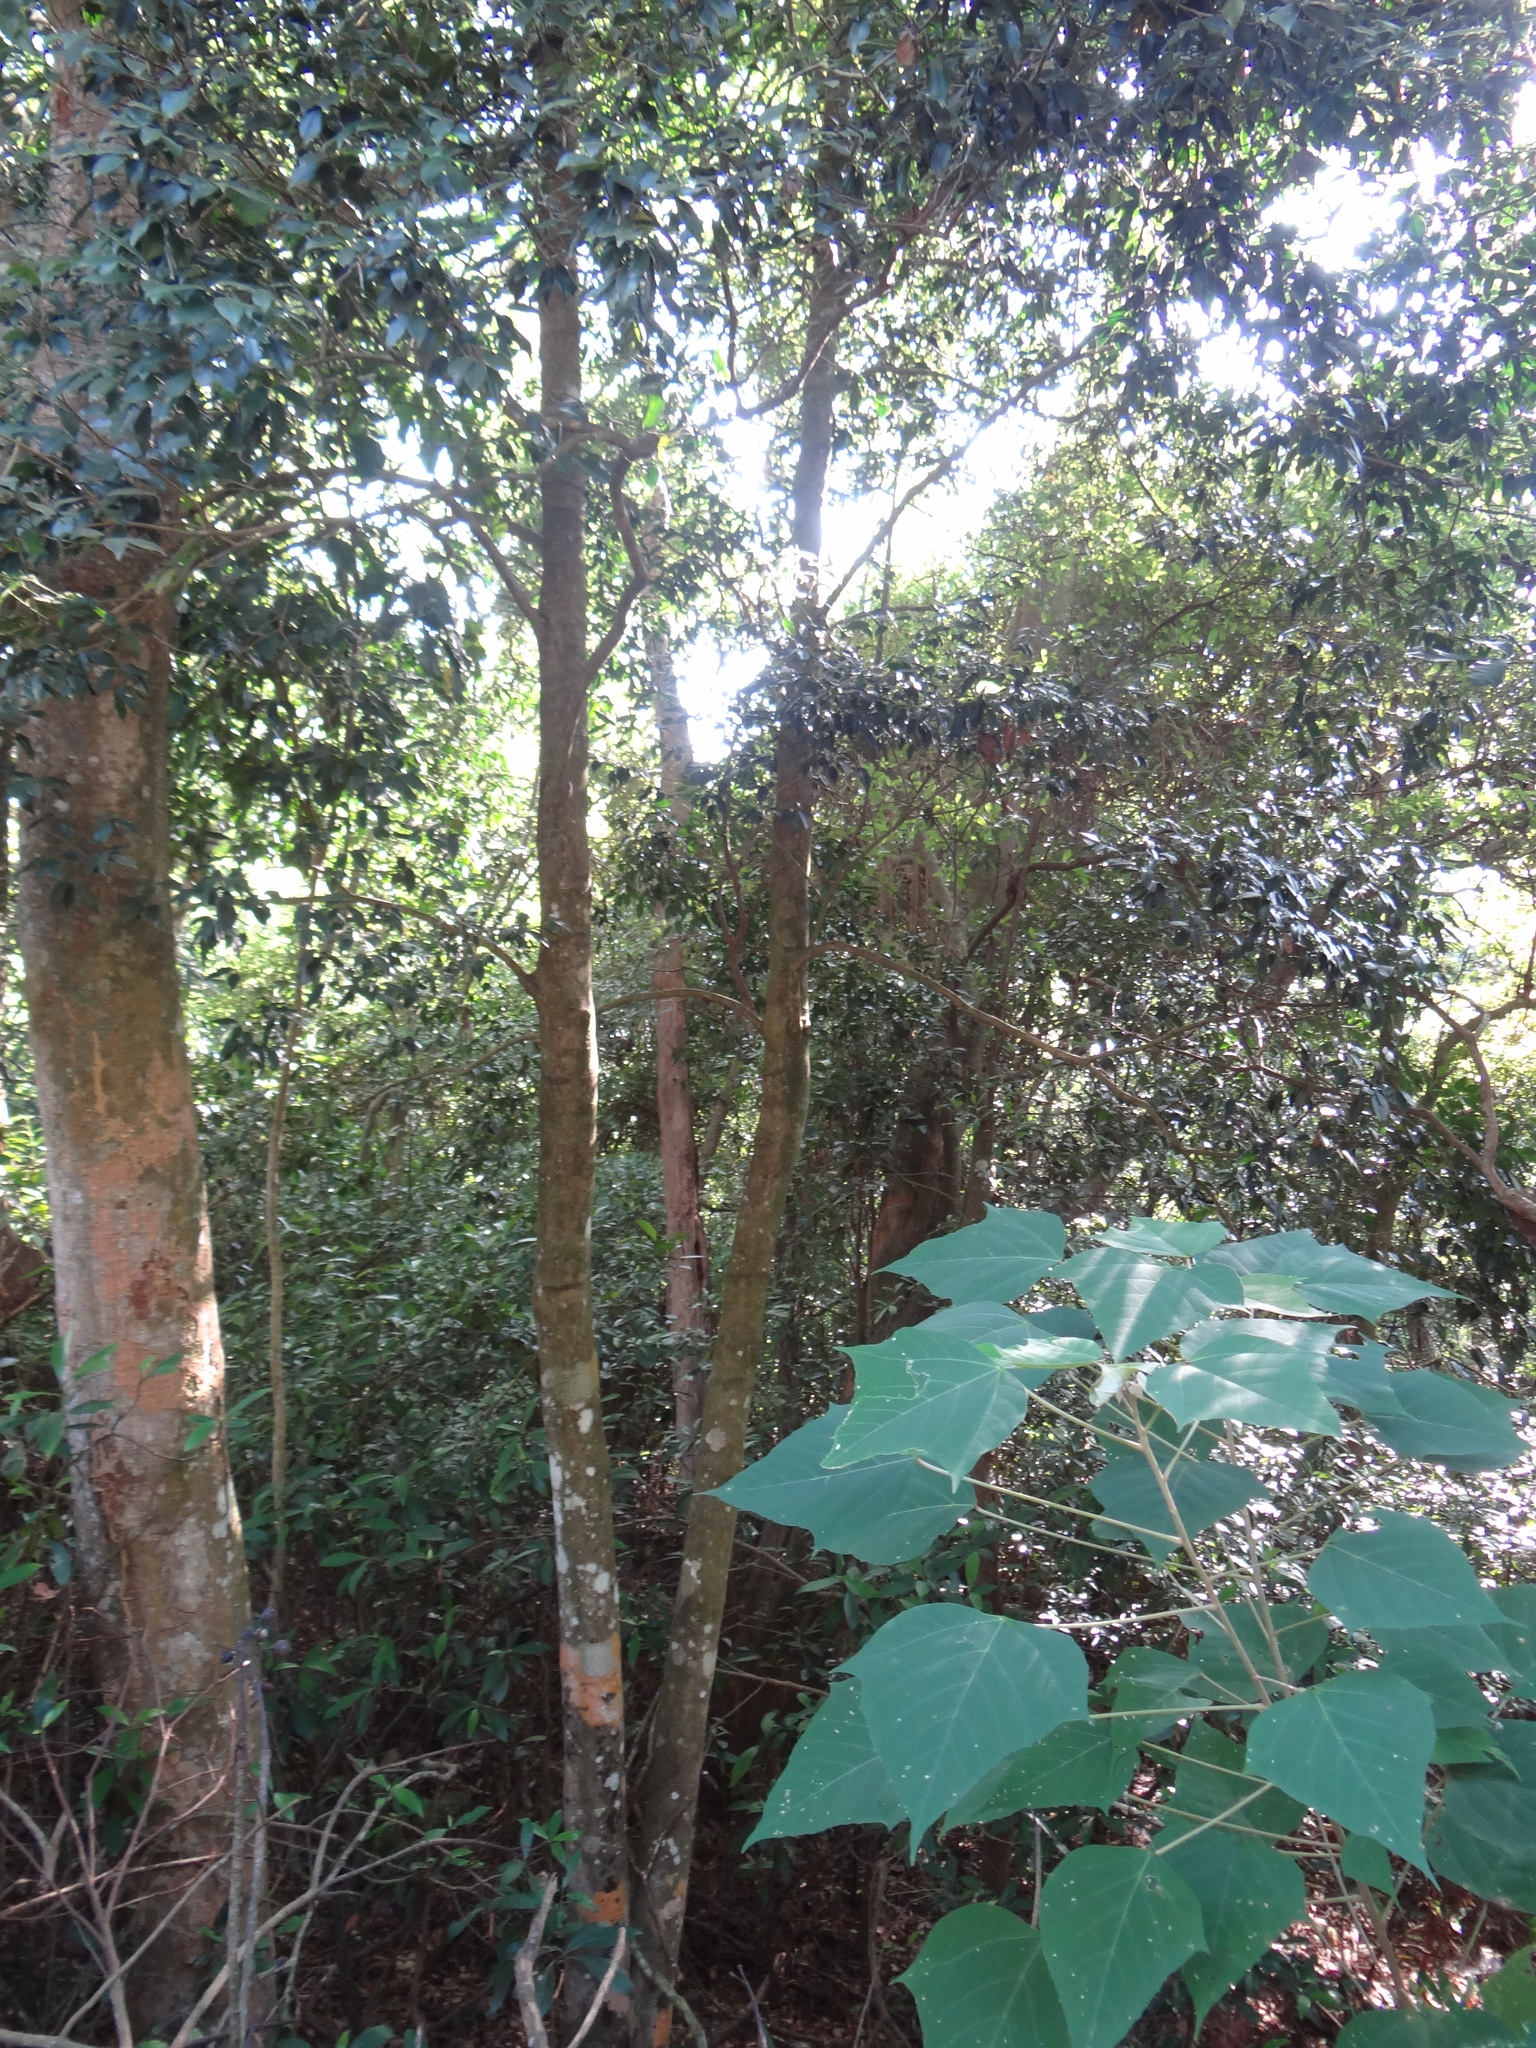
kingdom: Plantae
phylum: Tracheophyta
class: Magnoliopsida
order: Aquifoliales
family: Aquifoliaceae
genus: Ilex
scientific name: Ilex uraiensis
